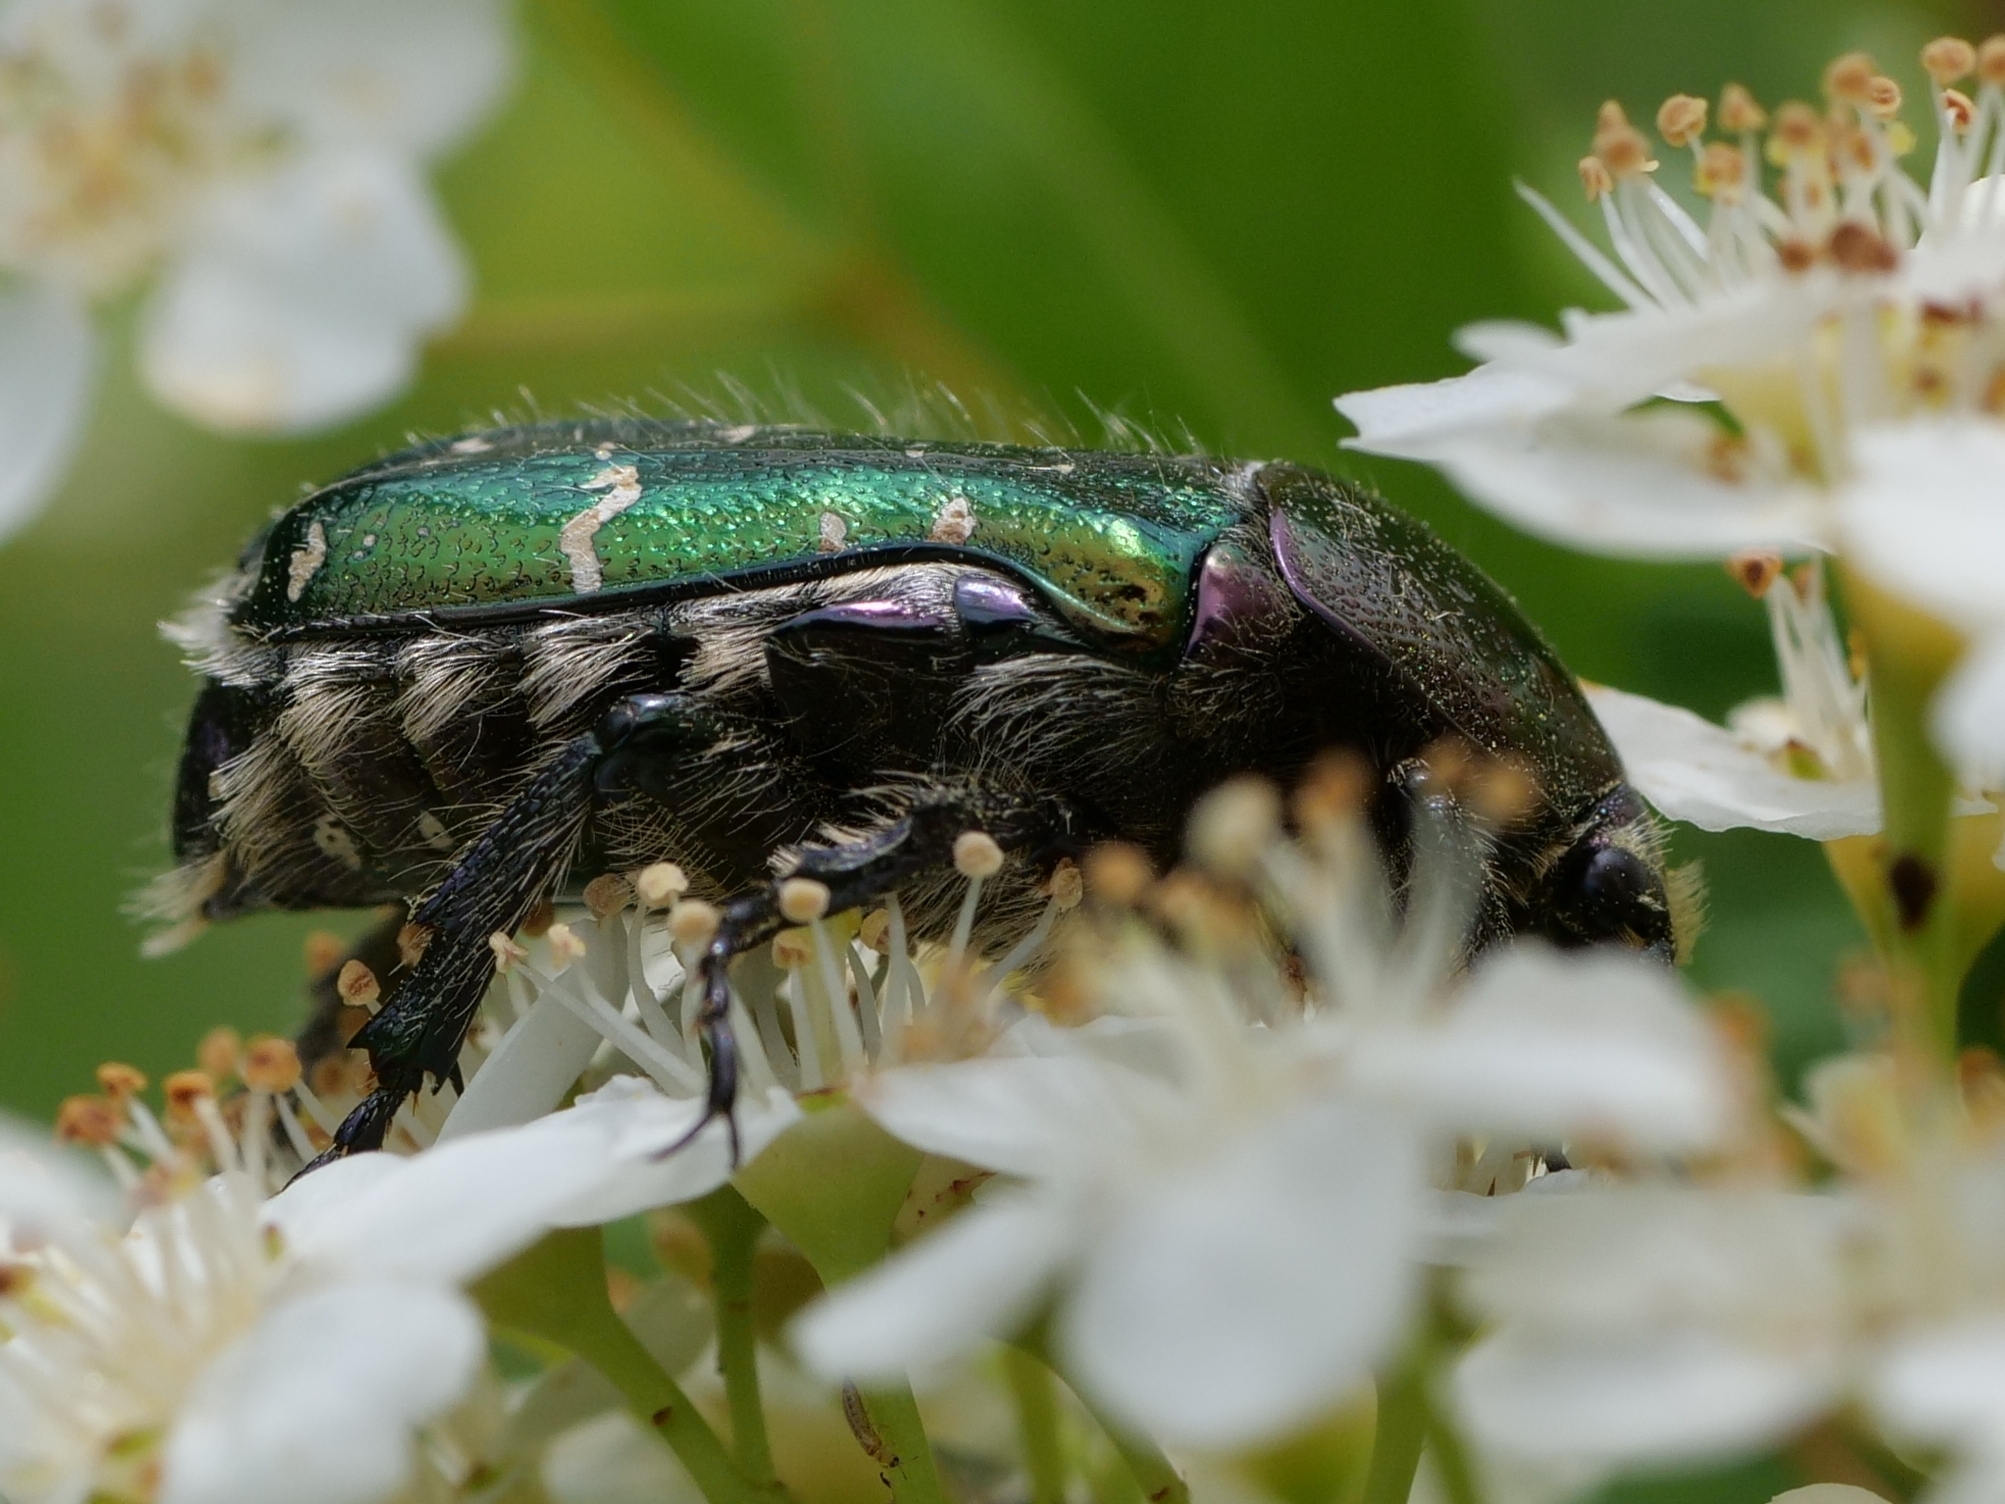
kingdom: Animalia
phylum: Arthropoda
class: Insecta
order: Coleoptera
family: Scarabaeidae
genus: Cetonia
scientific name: Cetonia aurata
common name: Rose chafer
